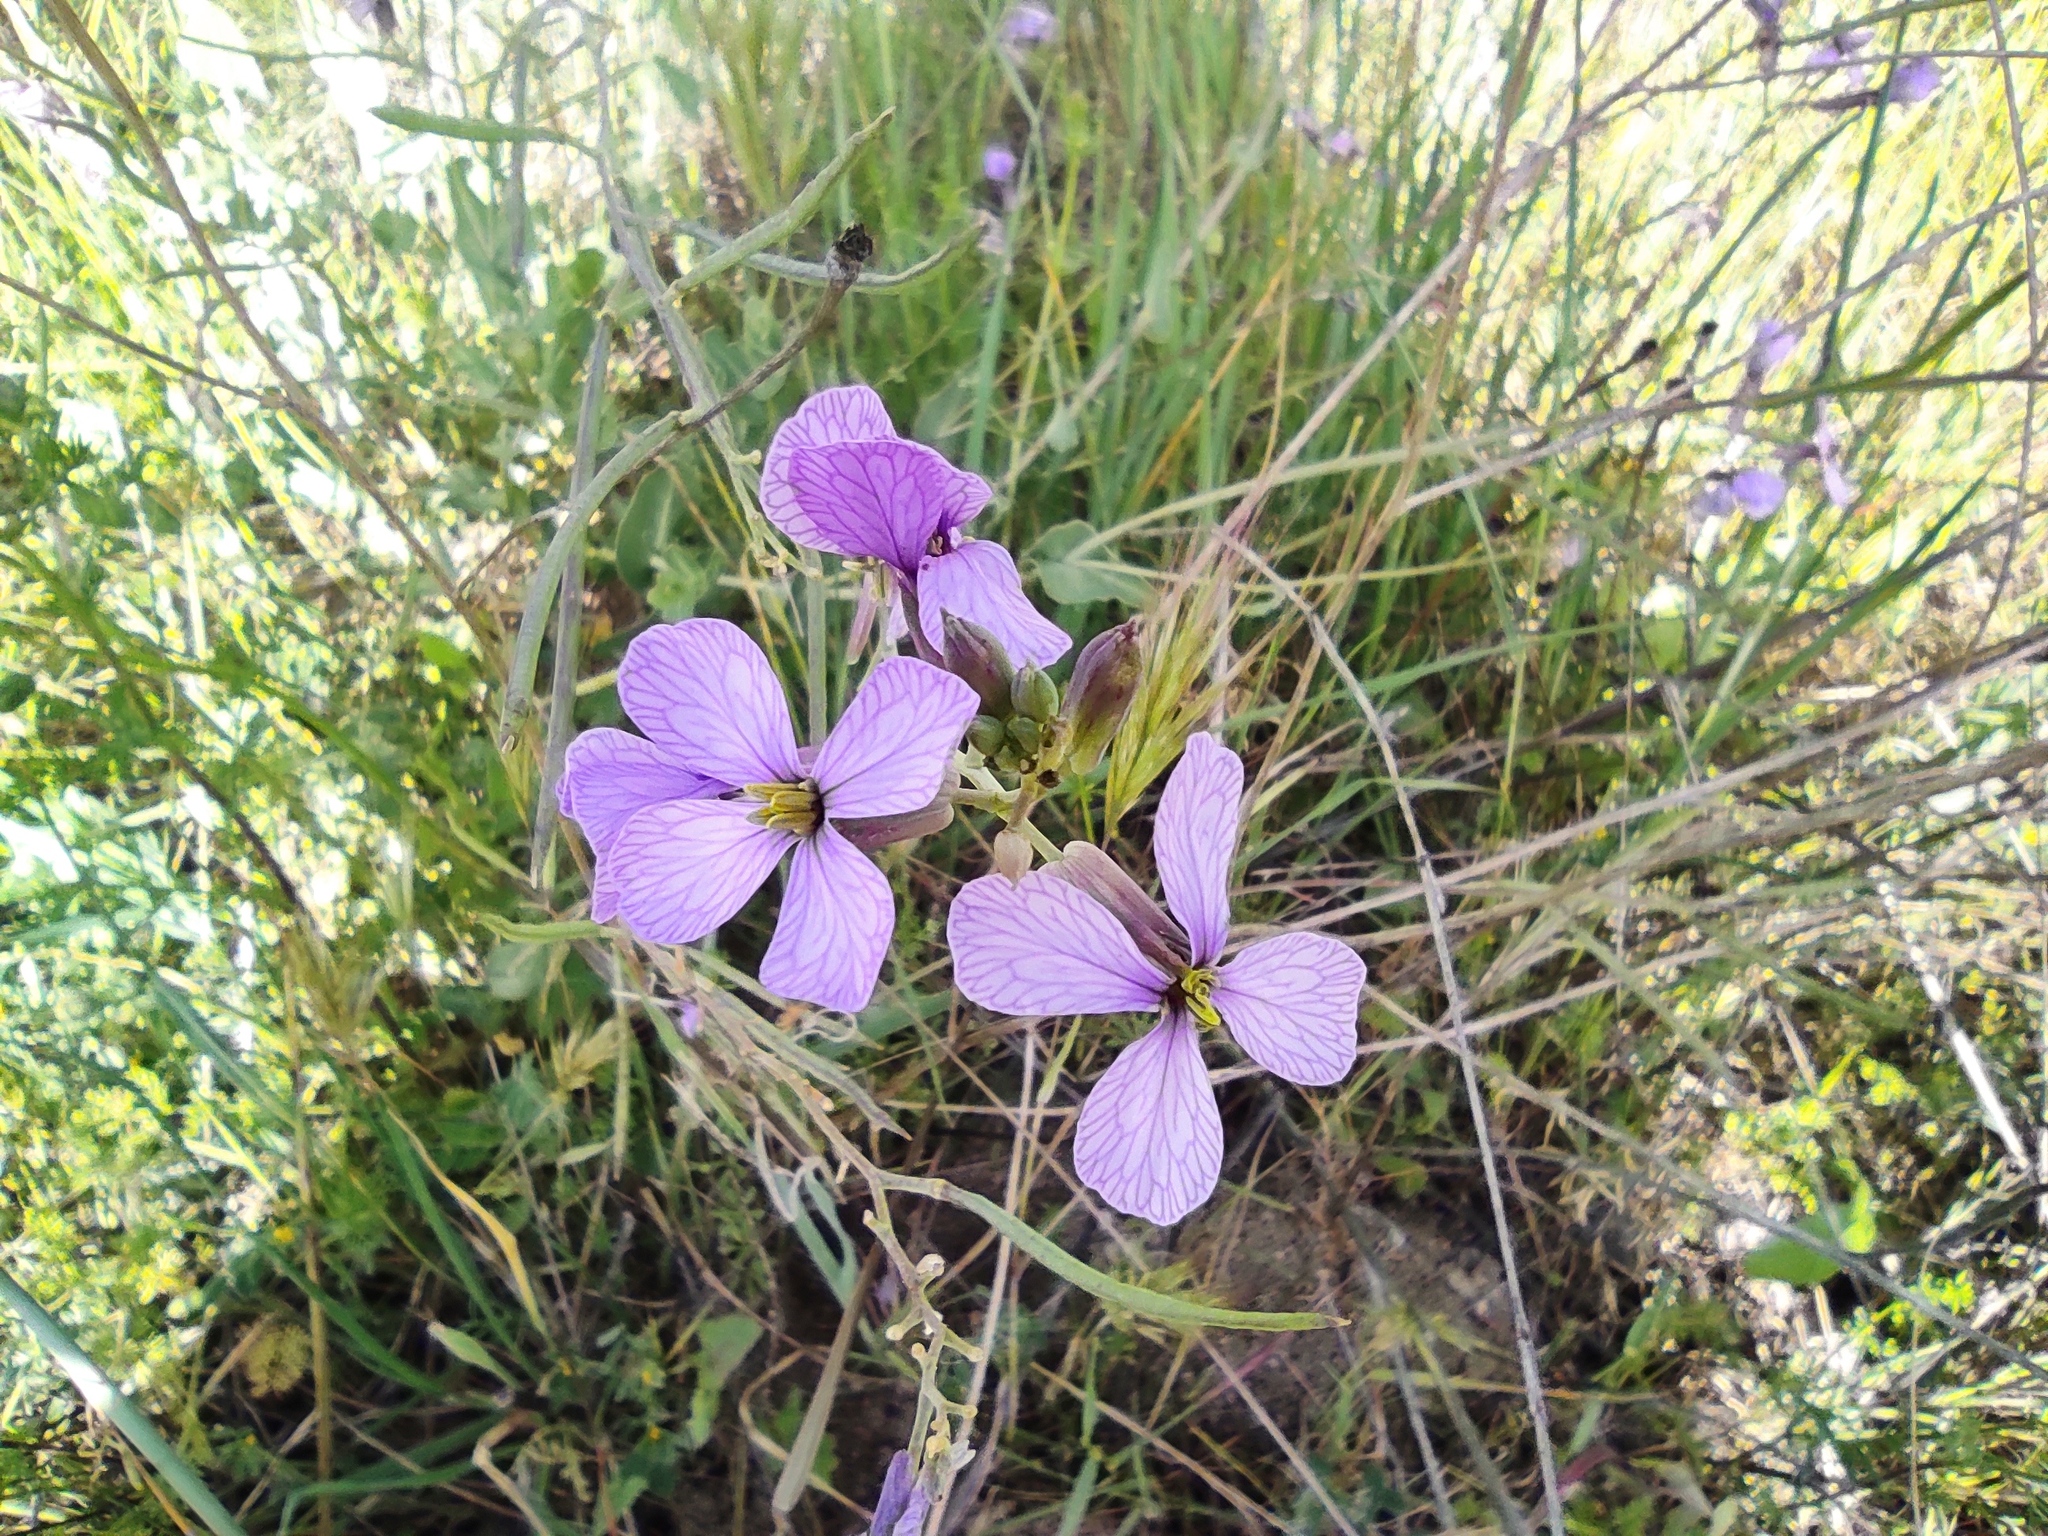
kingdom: Plantae
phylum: Tracheophyta
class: Magnoliopsida
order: Brassicales
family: Brassicaceae
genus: Moricandia
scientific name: Moricandia arvensis
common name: Purple mistress
